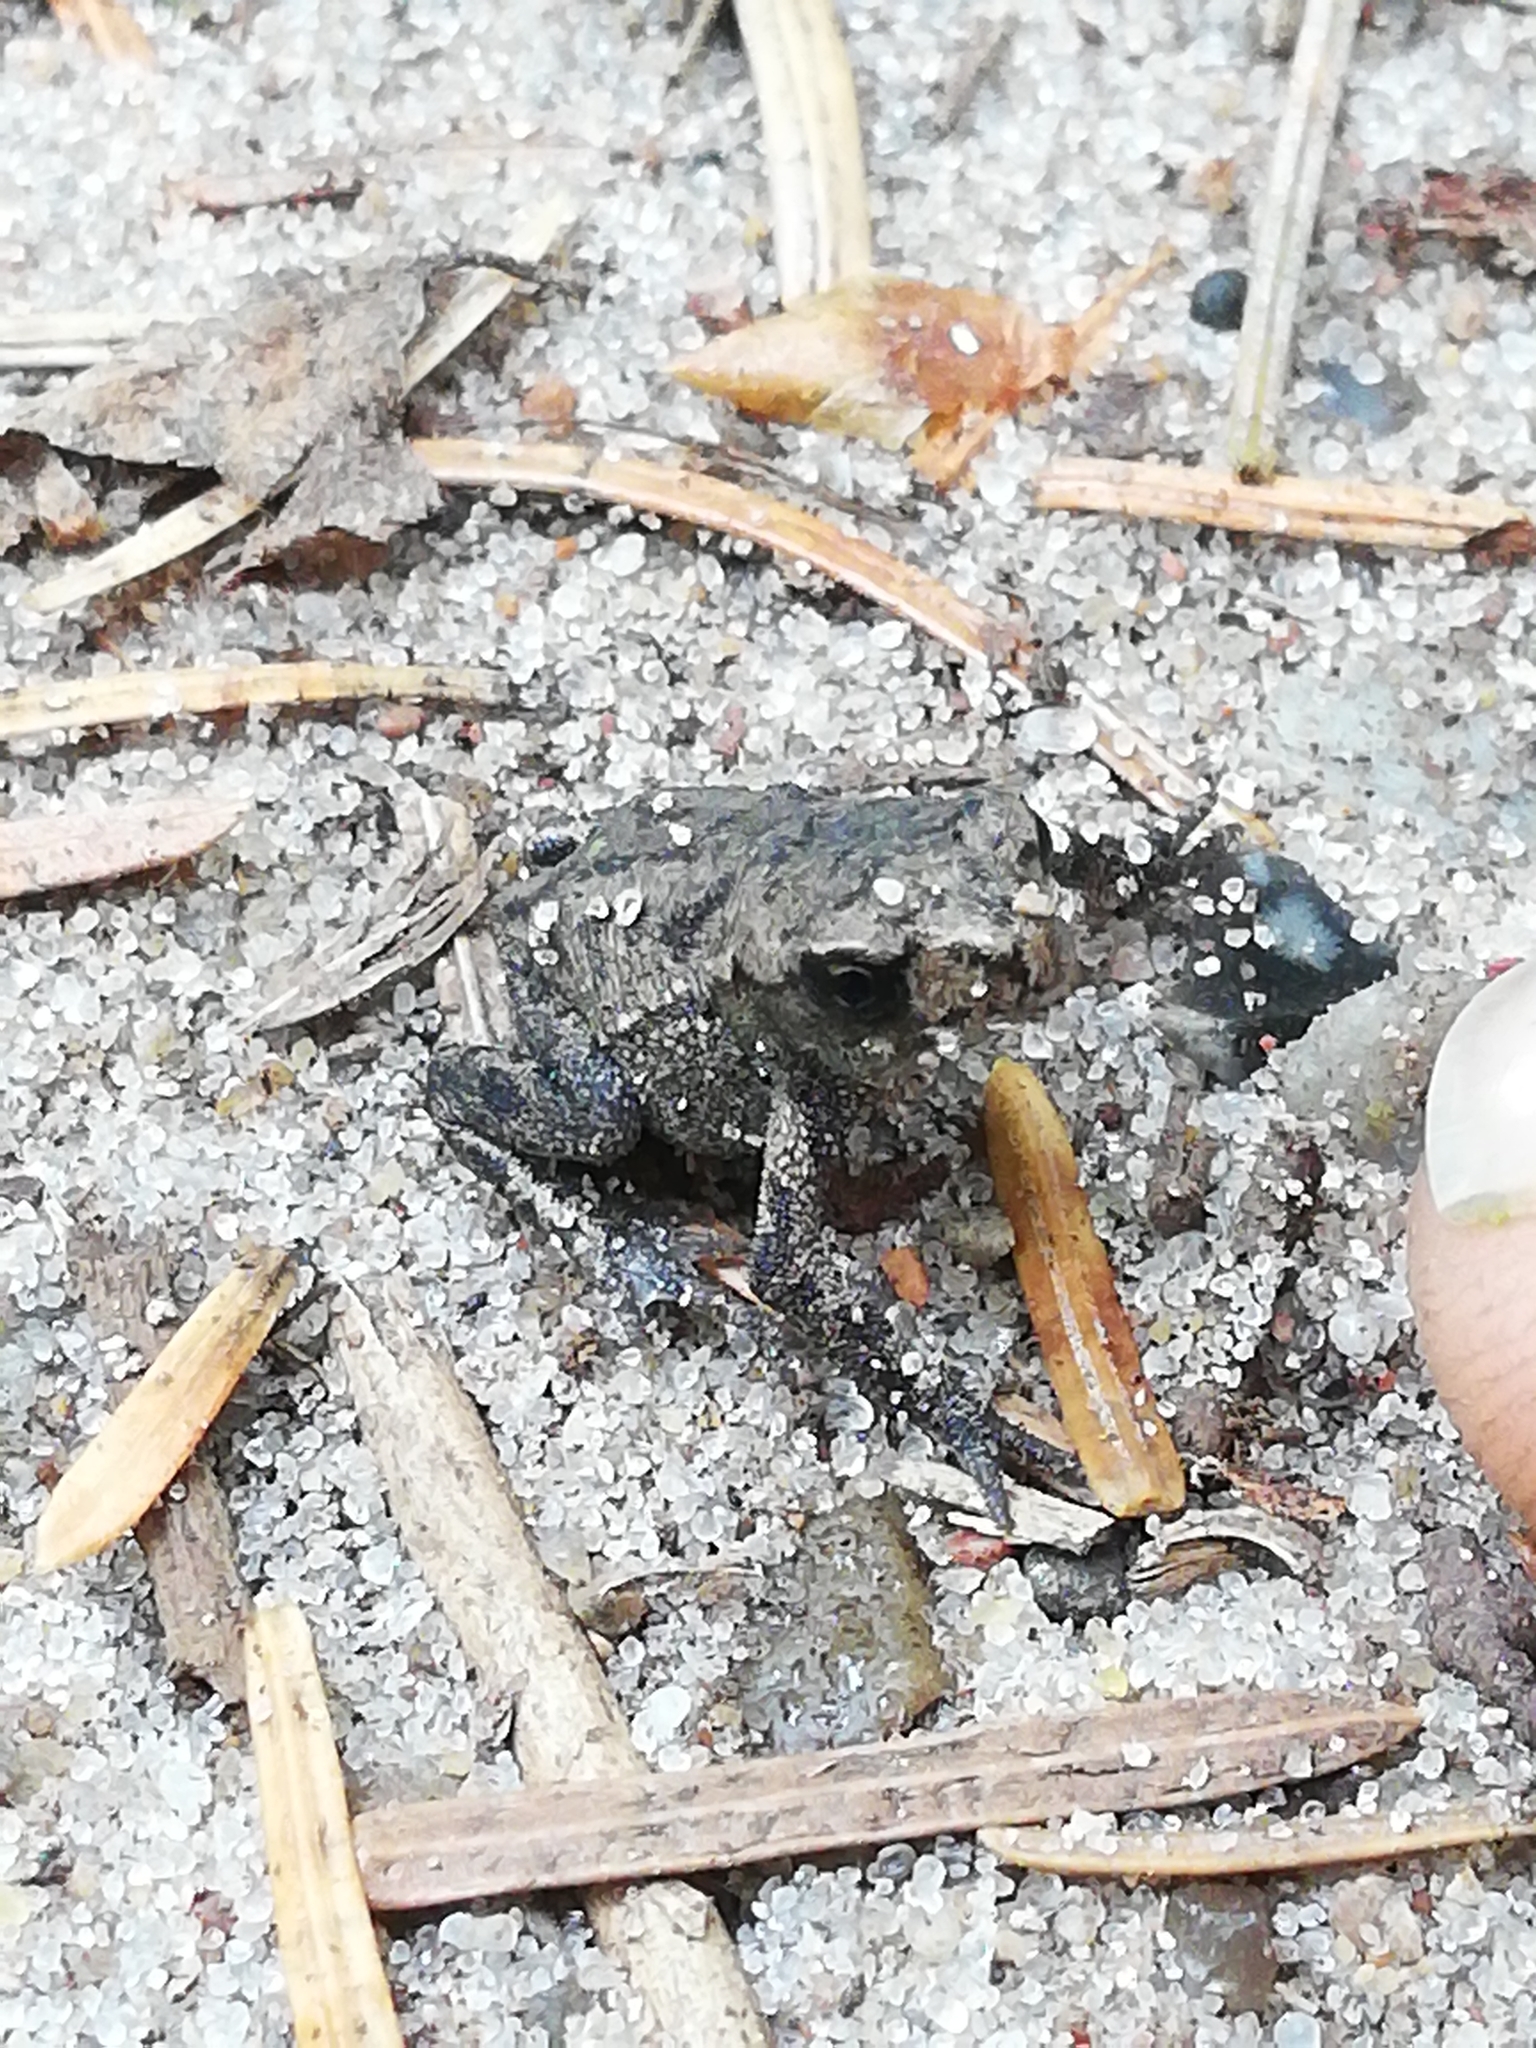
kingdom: Animalia
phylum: Chordata
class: Amphibia
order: Anura
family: Bufonidae
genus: Bufo
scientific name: Bufo bufo
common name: Common toad
